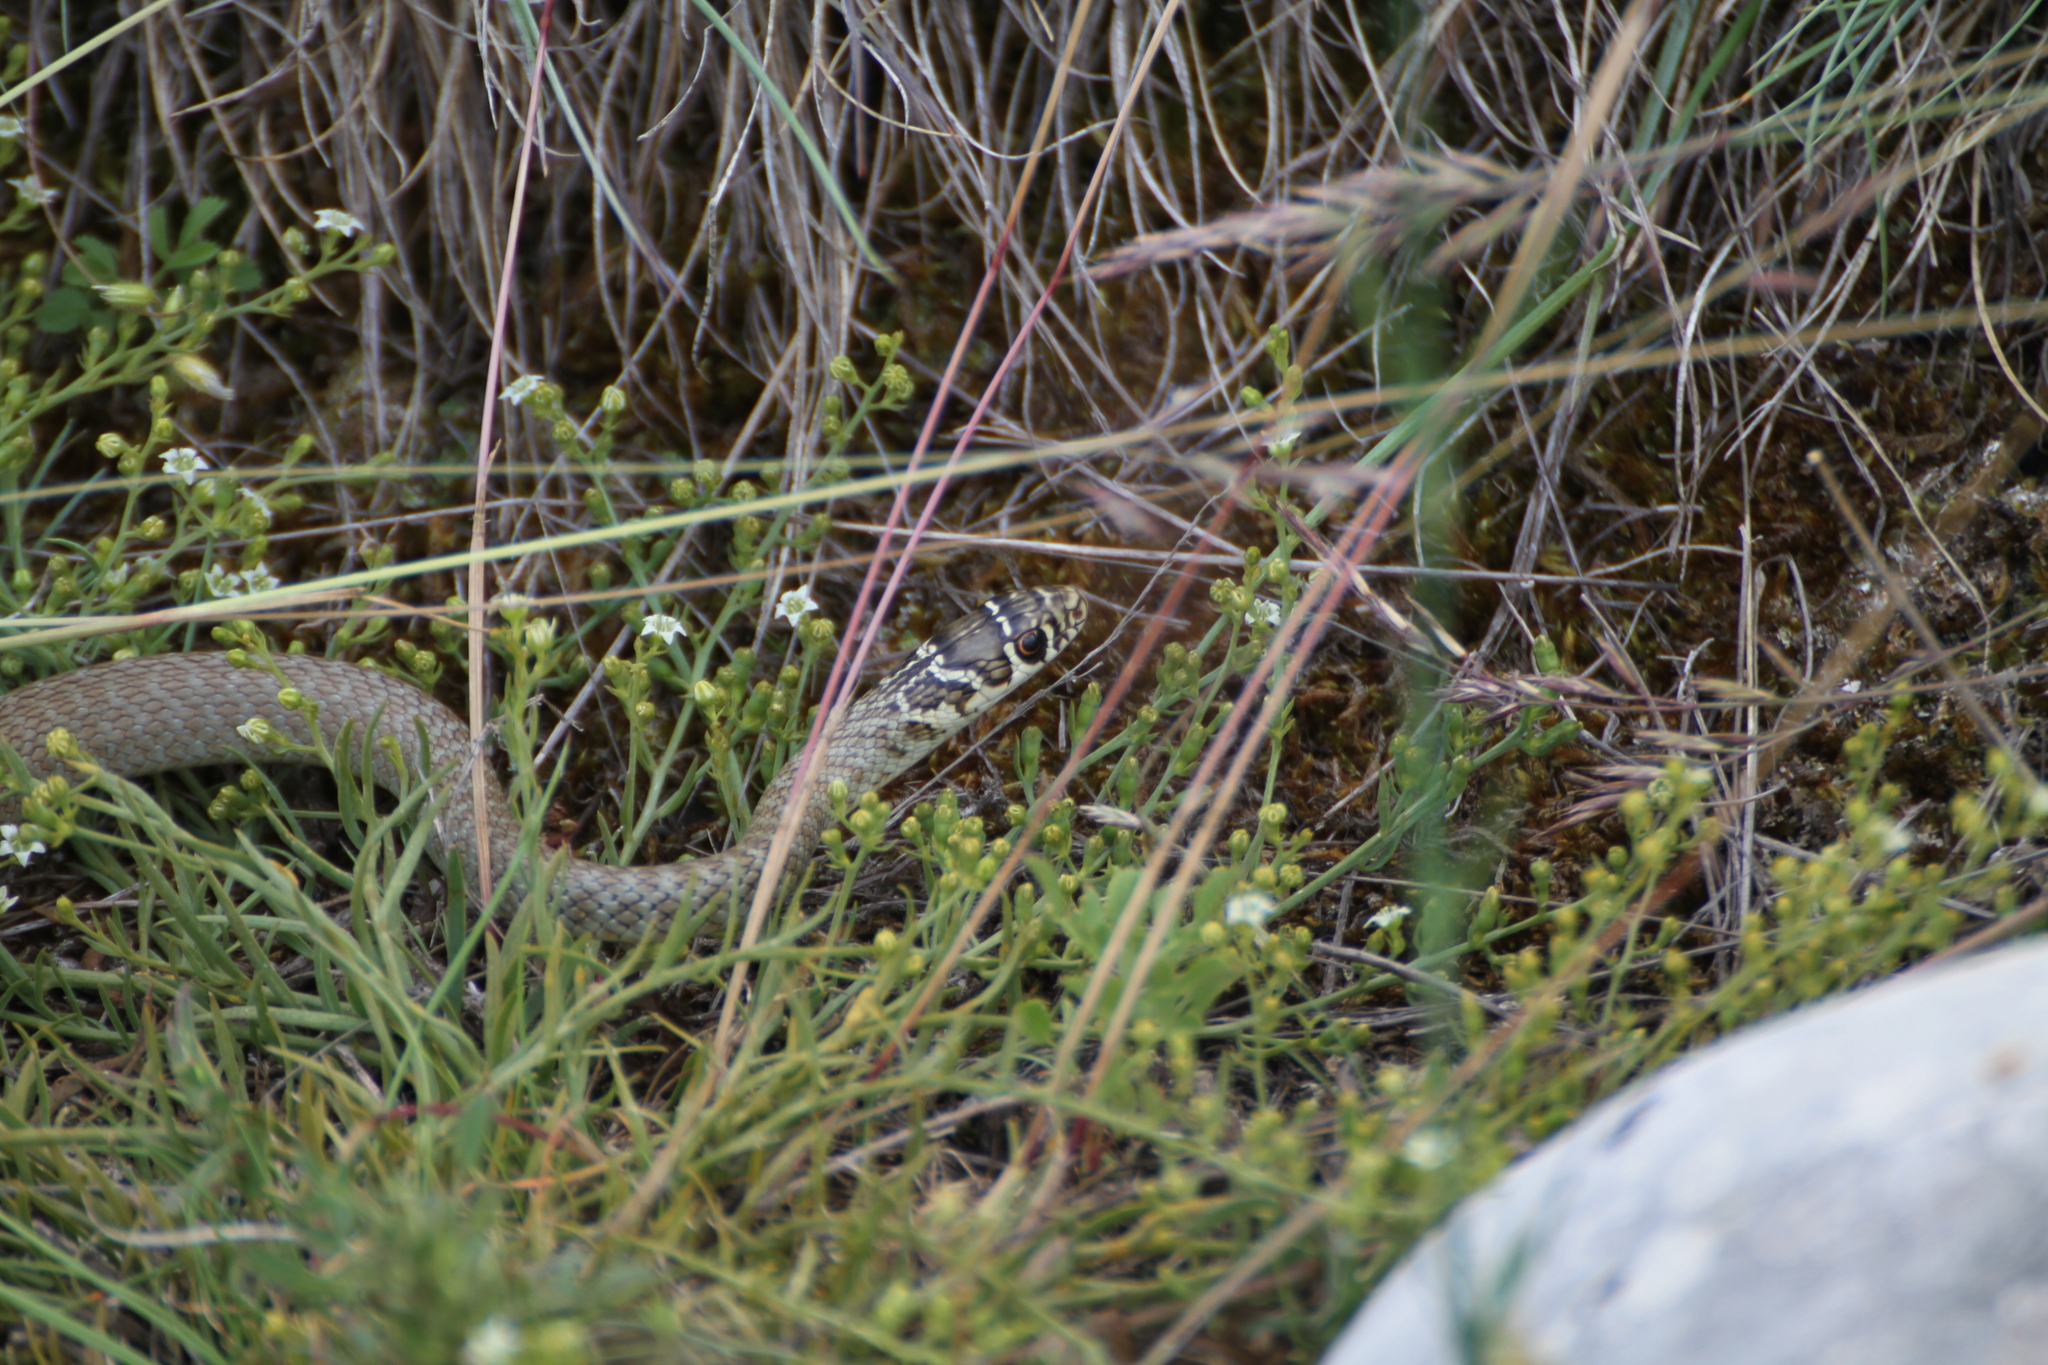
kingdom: Animalia
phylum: Chordata
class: Squamata
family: Colubridae
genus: Hierophis
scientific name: Hierophis viridiflavus
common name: Green whip snake
